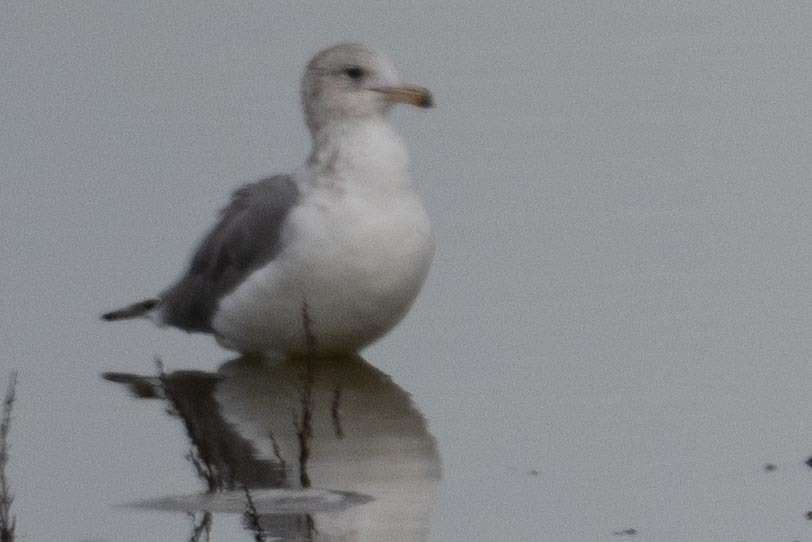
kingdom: Animalia
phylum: Chordata
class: Aves
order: Charadriiformes
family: Laridae
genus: Larus
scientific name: Larus californicus
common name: California gull
